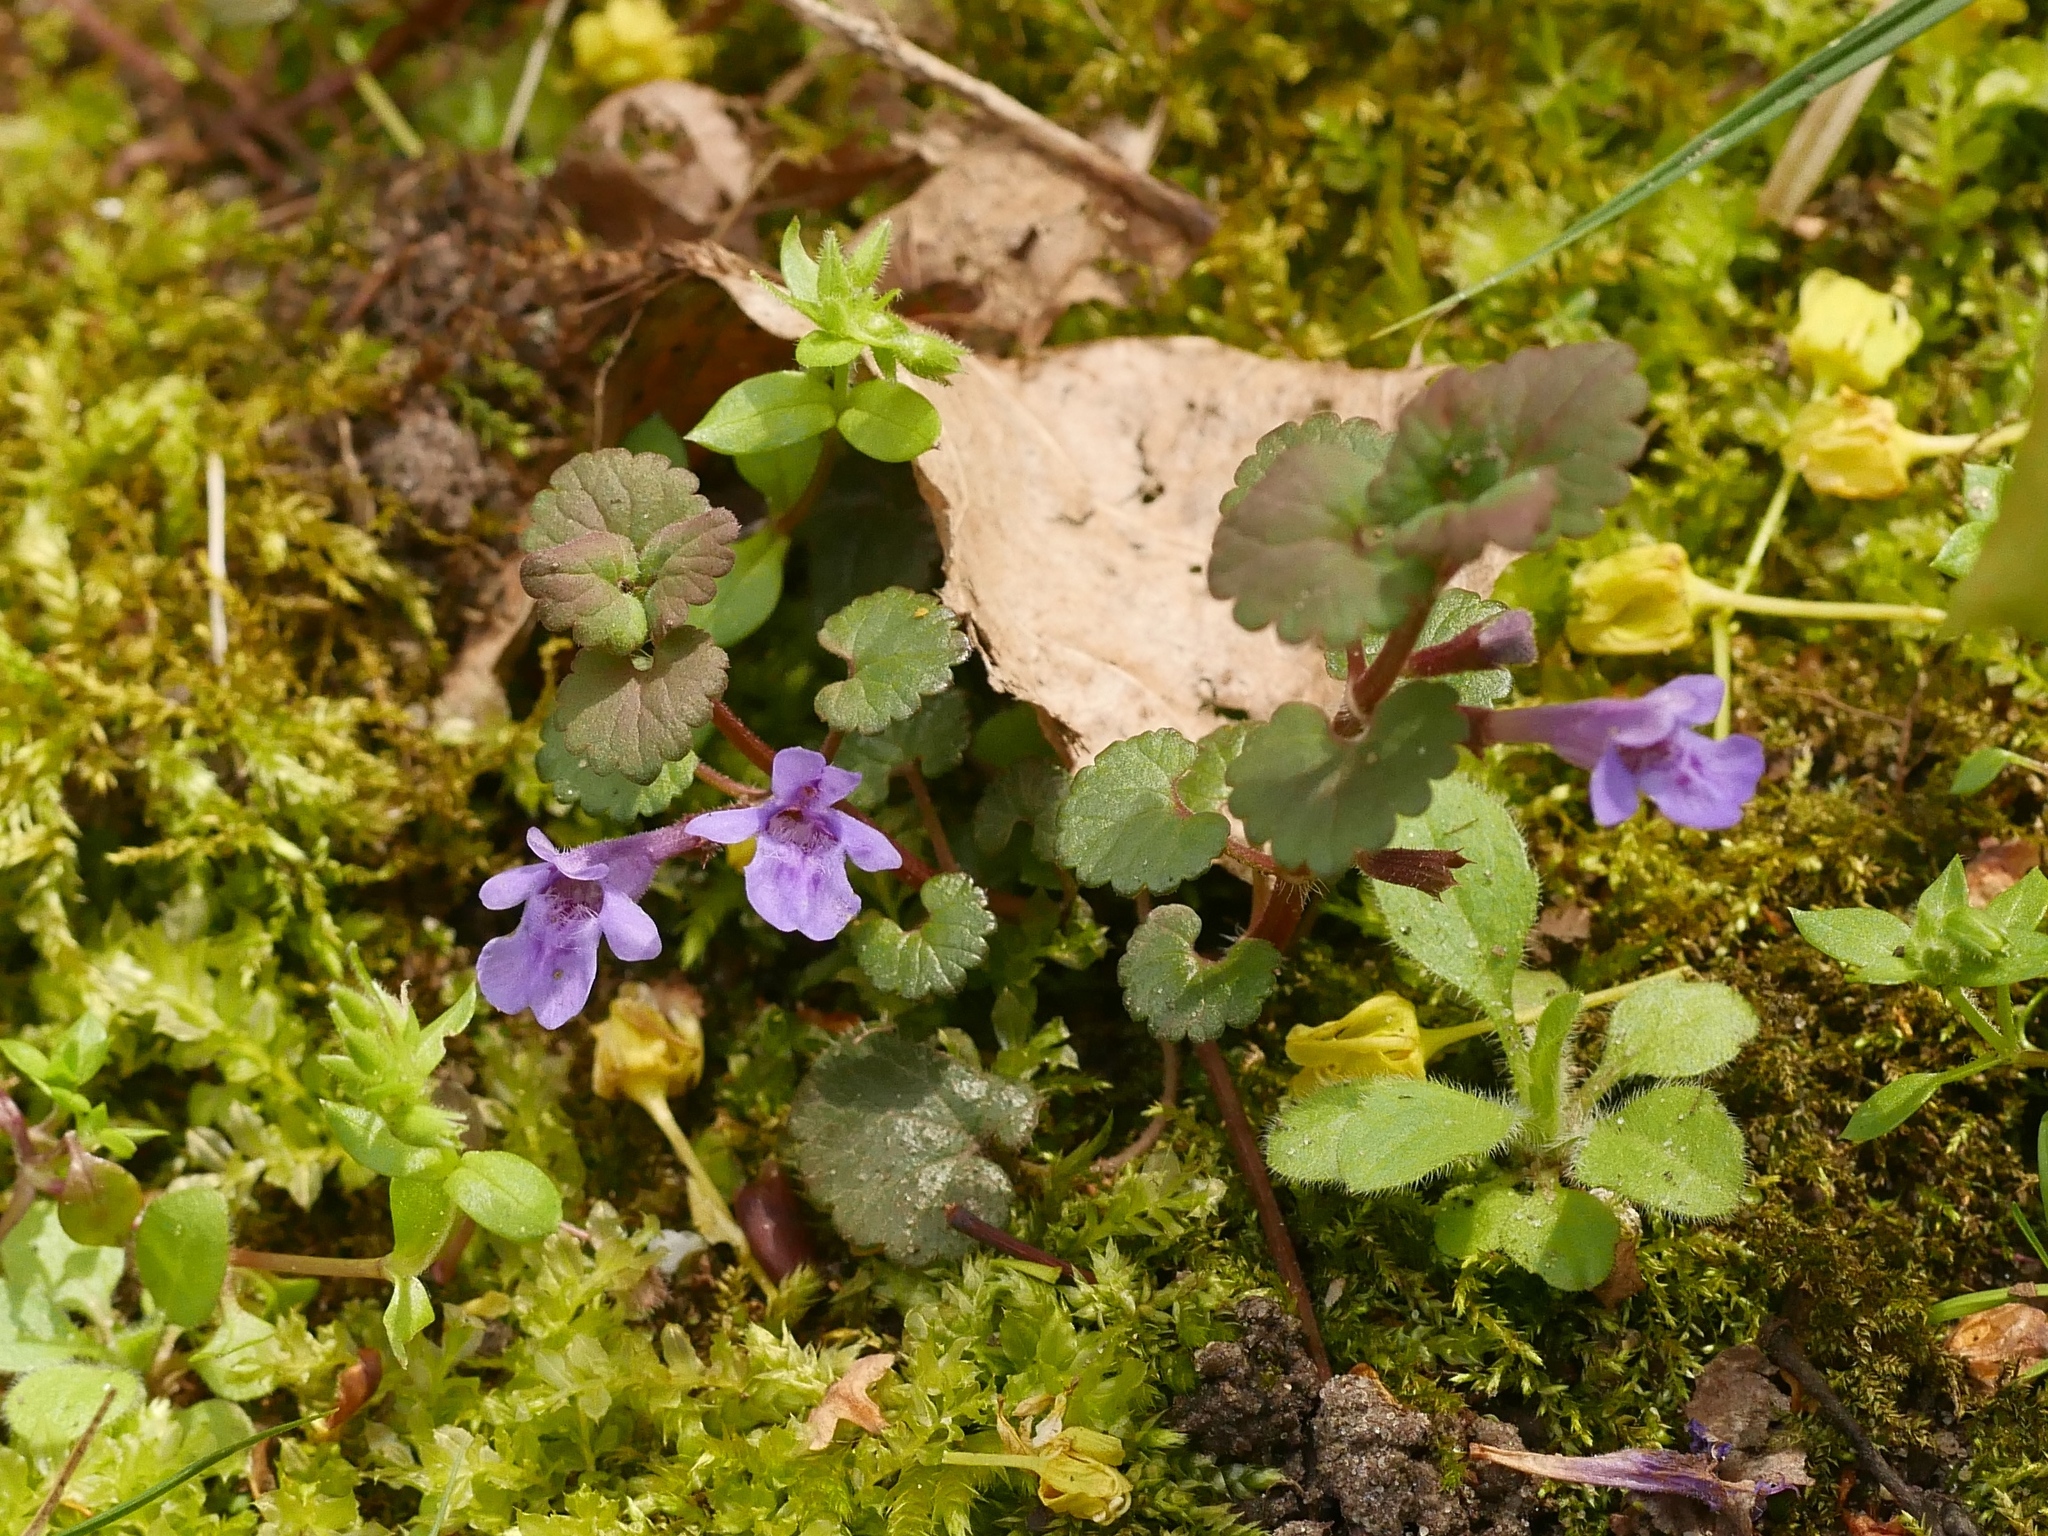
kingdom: Plantae
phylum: Tracheophyta
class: Magnoliopsida
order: Lamiales
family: Lamiaceae
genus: Glechoma
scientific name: Glechoma hederacea
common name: Ground ivy
